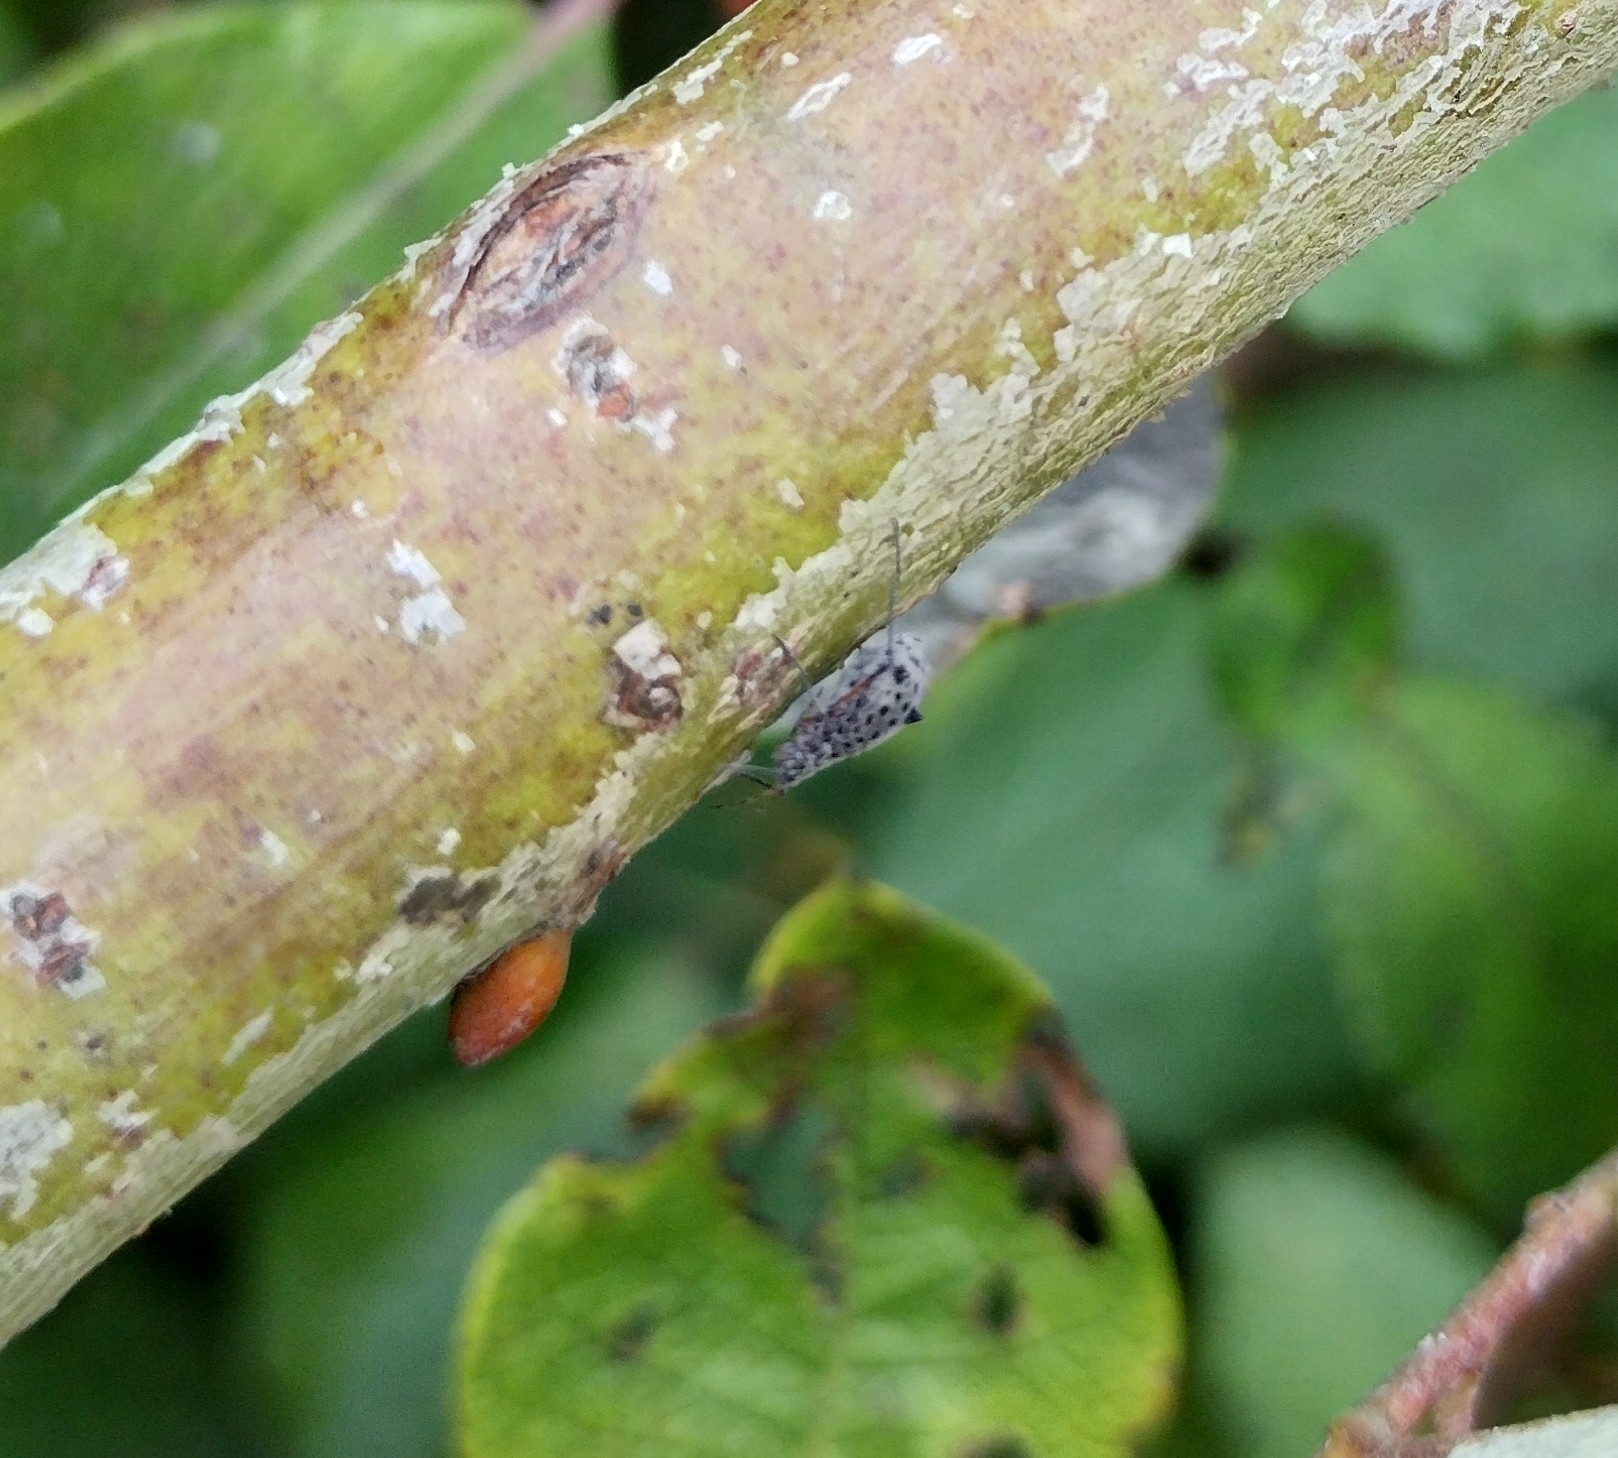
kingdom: Animalia
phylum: Arthropoda
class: Insecta
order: Hemiptera
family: Aphididae
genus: Tuberolachnus
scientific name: Tuberolachnus salignus
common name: Giant willow aphid
